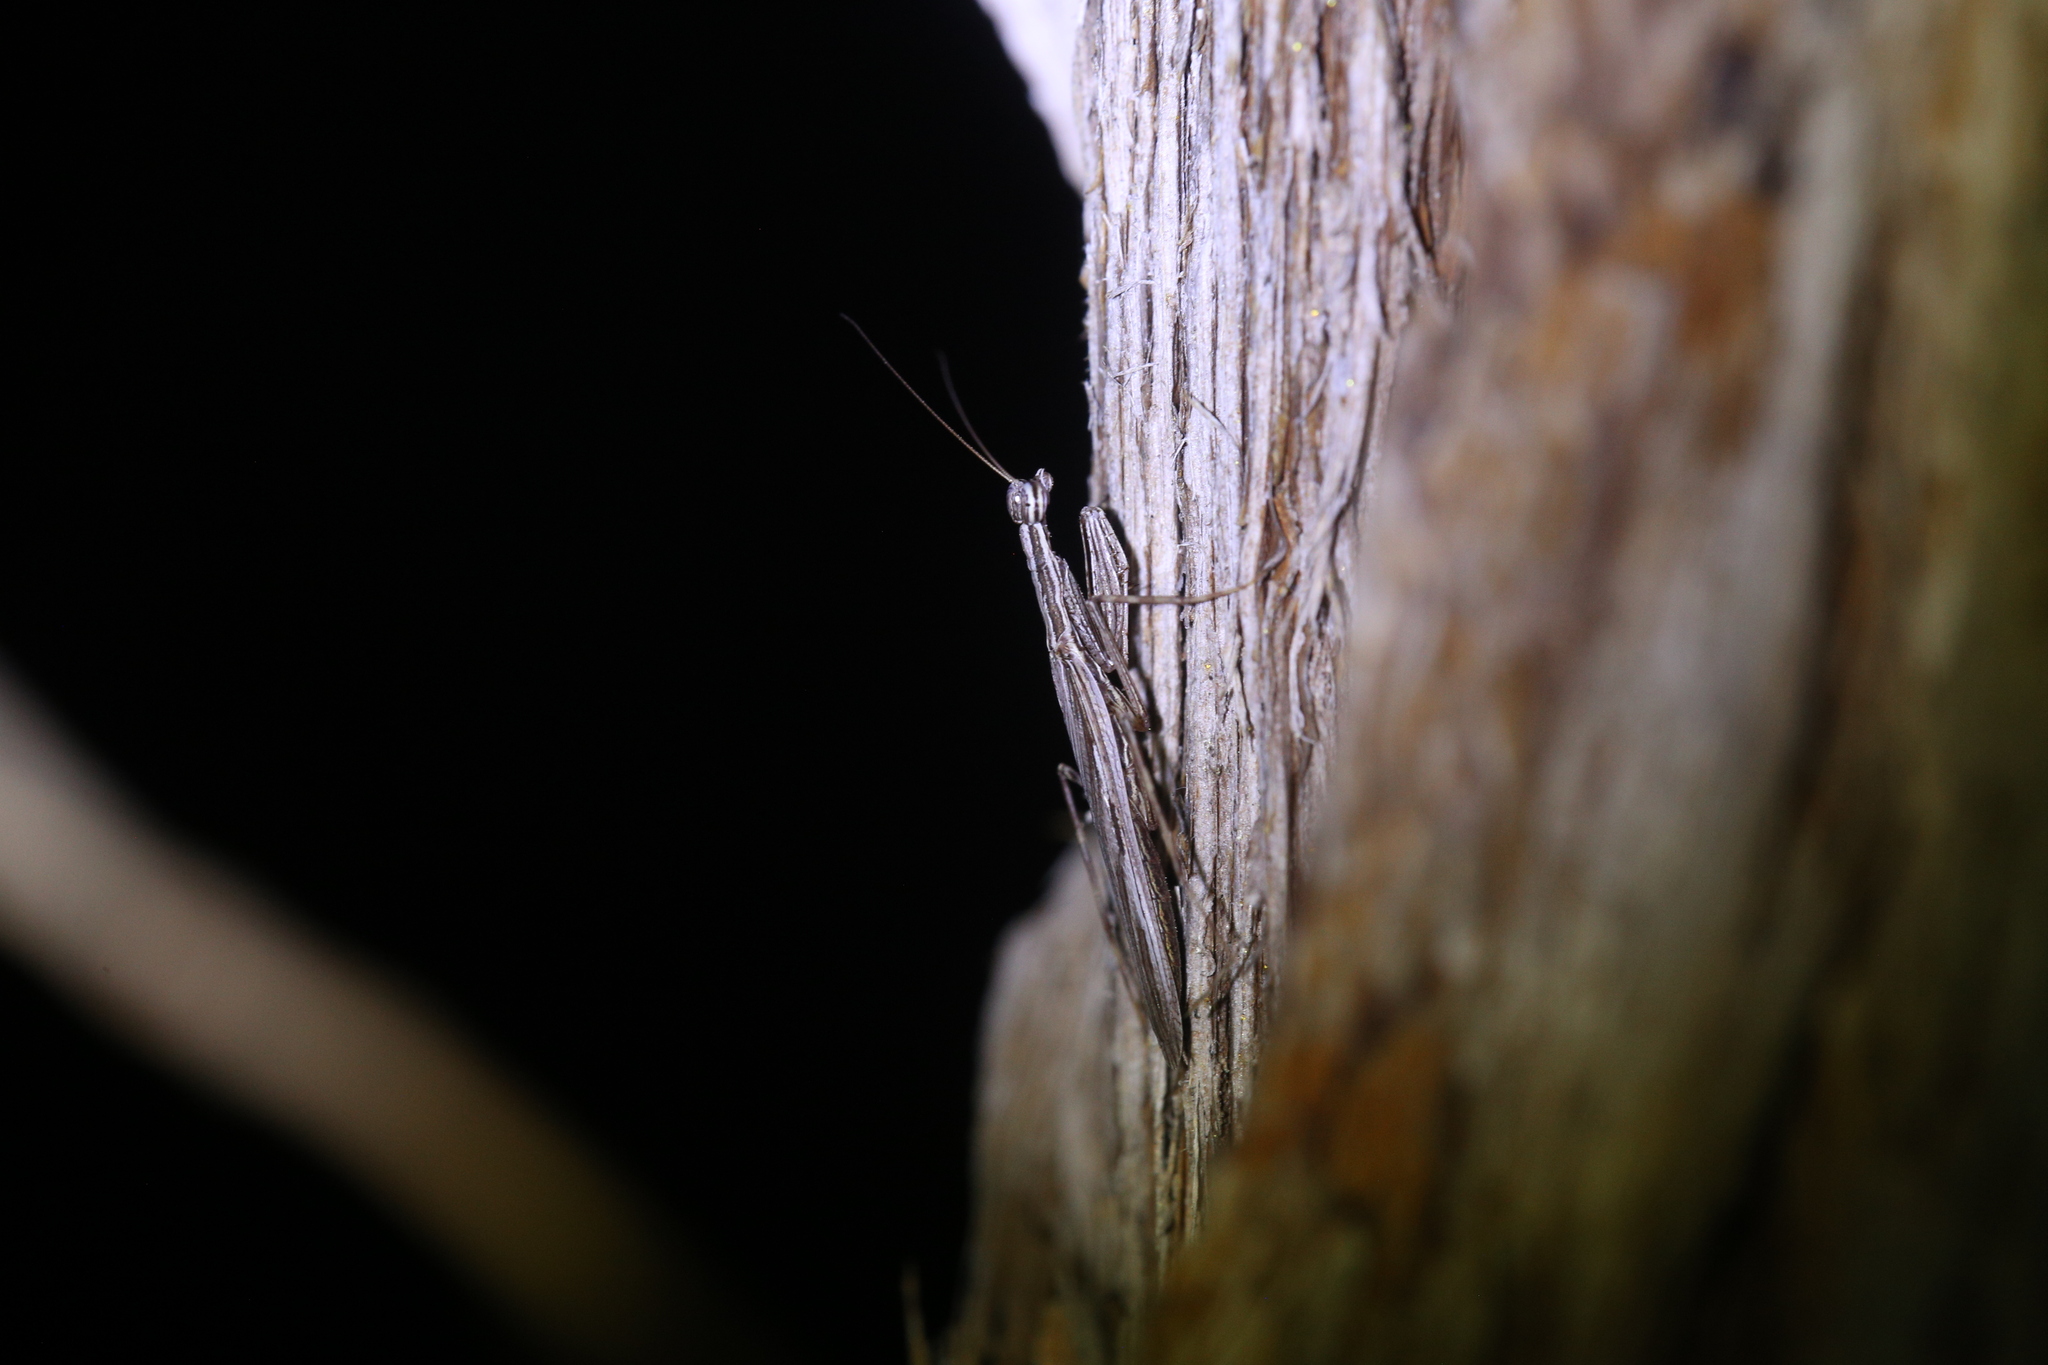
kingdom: Animalia
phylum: Arthropoda
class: Insecta
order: Mantodea
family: Nanomantidae
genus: Ima
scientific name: Ima fusca
